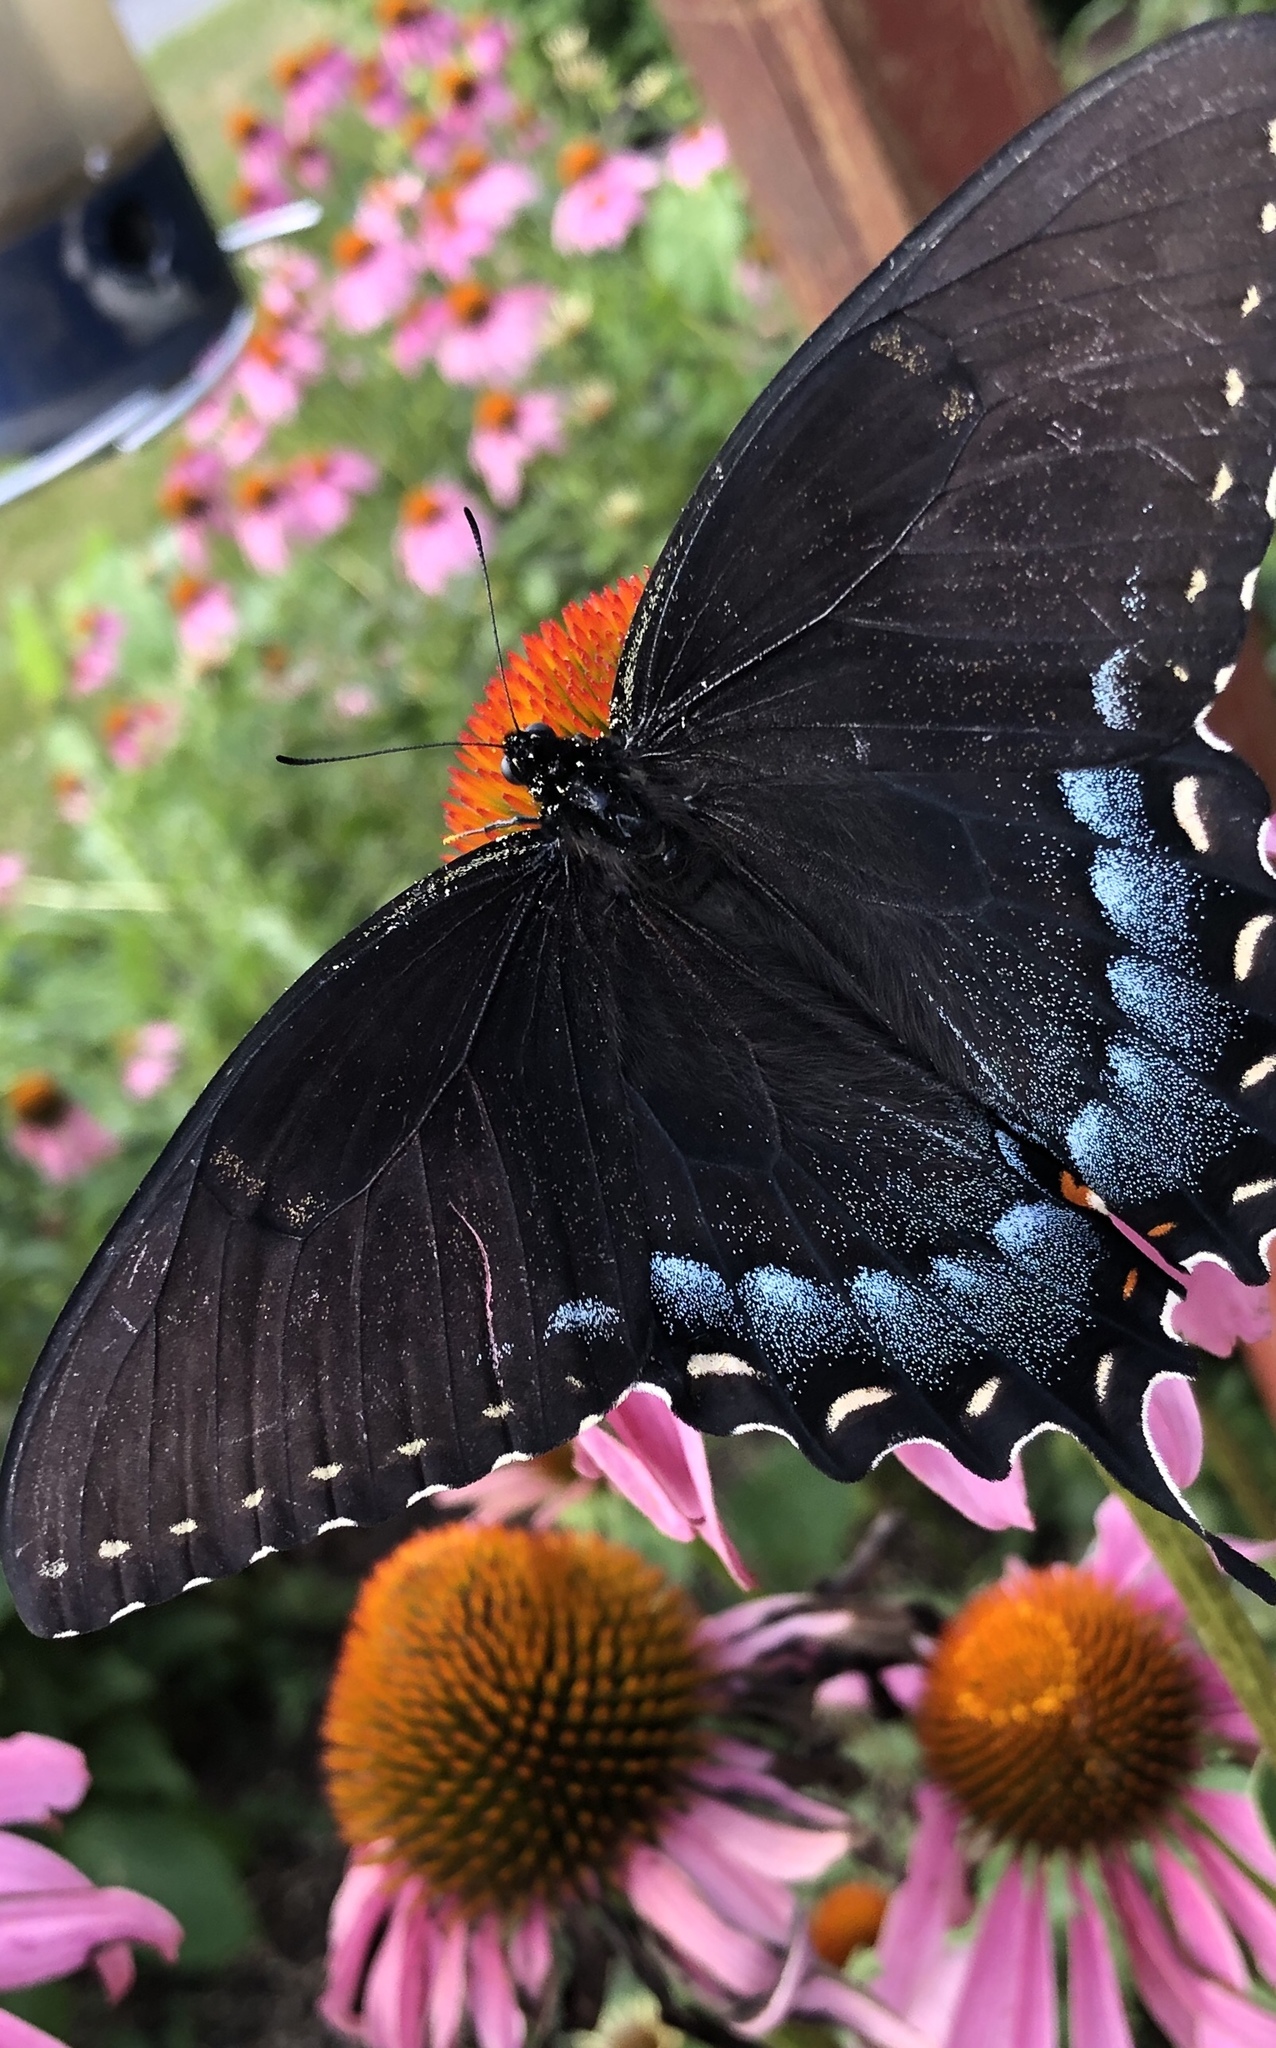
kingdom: Animalia
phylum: Arthropoda
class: Insecta
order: Lepidoptera
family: Papilionidae
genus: Papilio
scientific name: Papilio glaucus
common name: Tiger swallowtail
